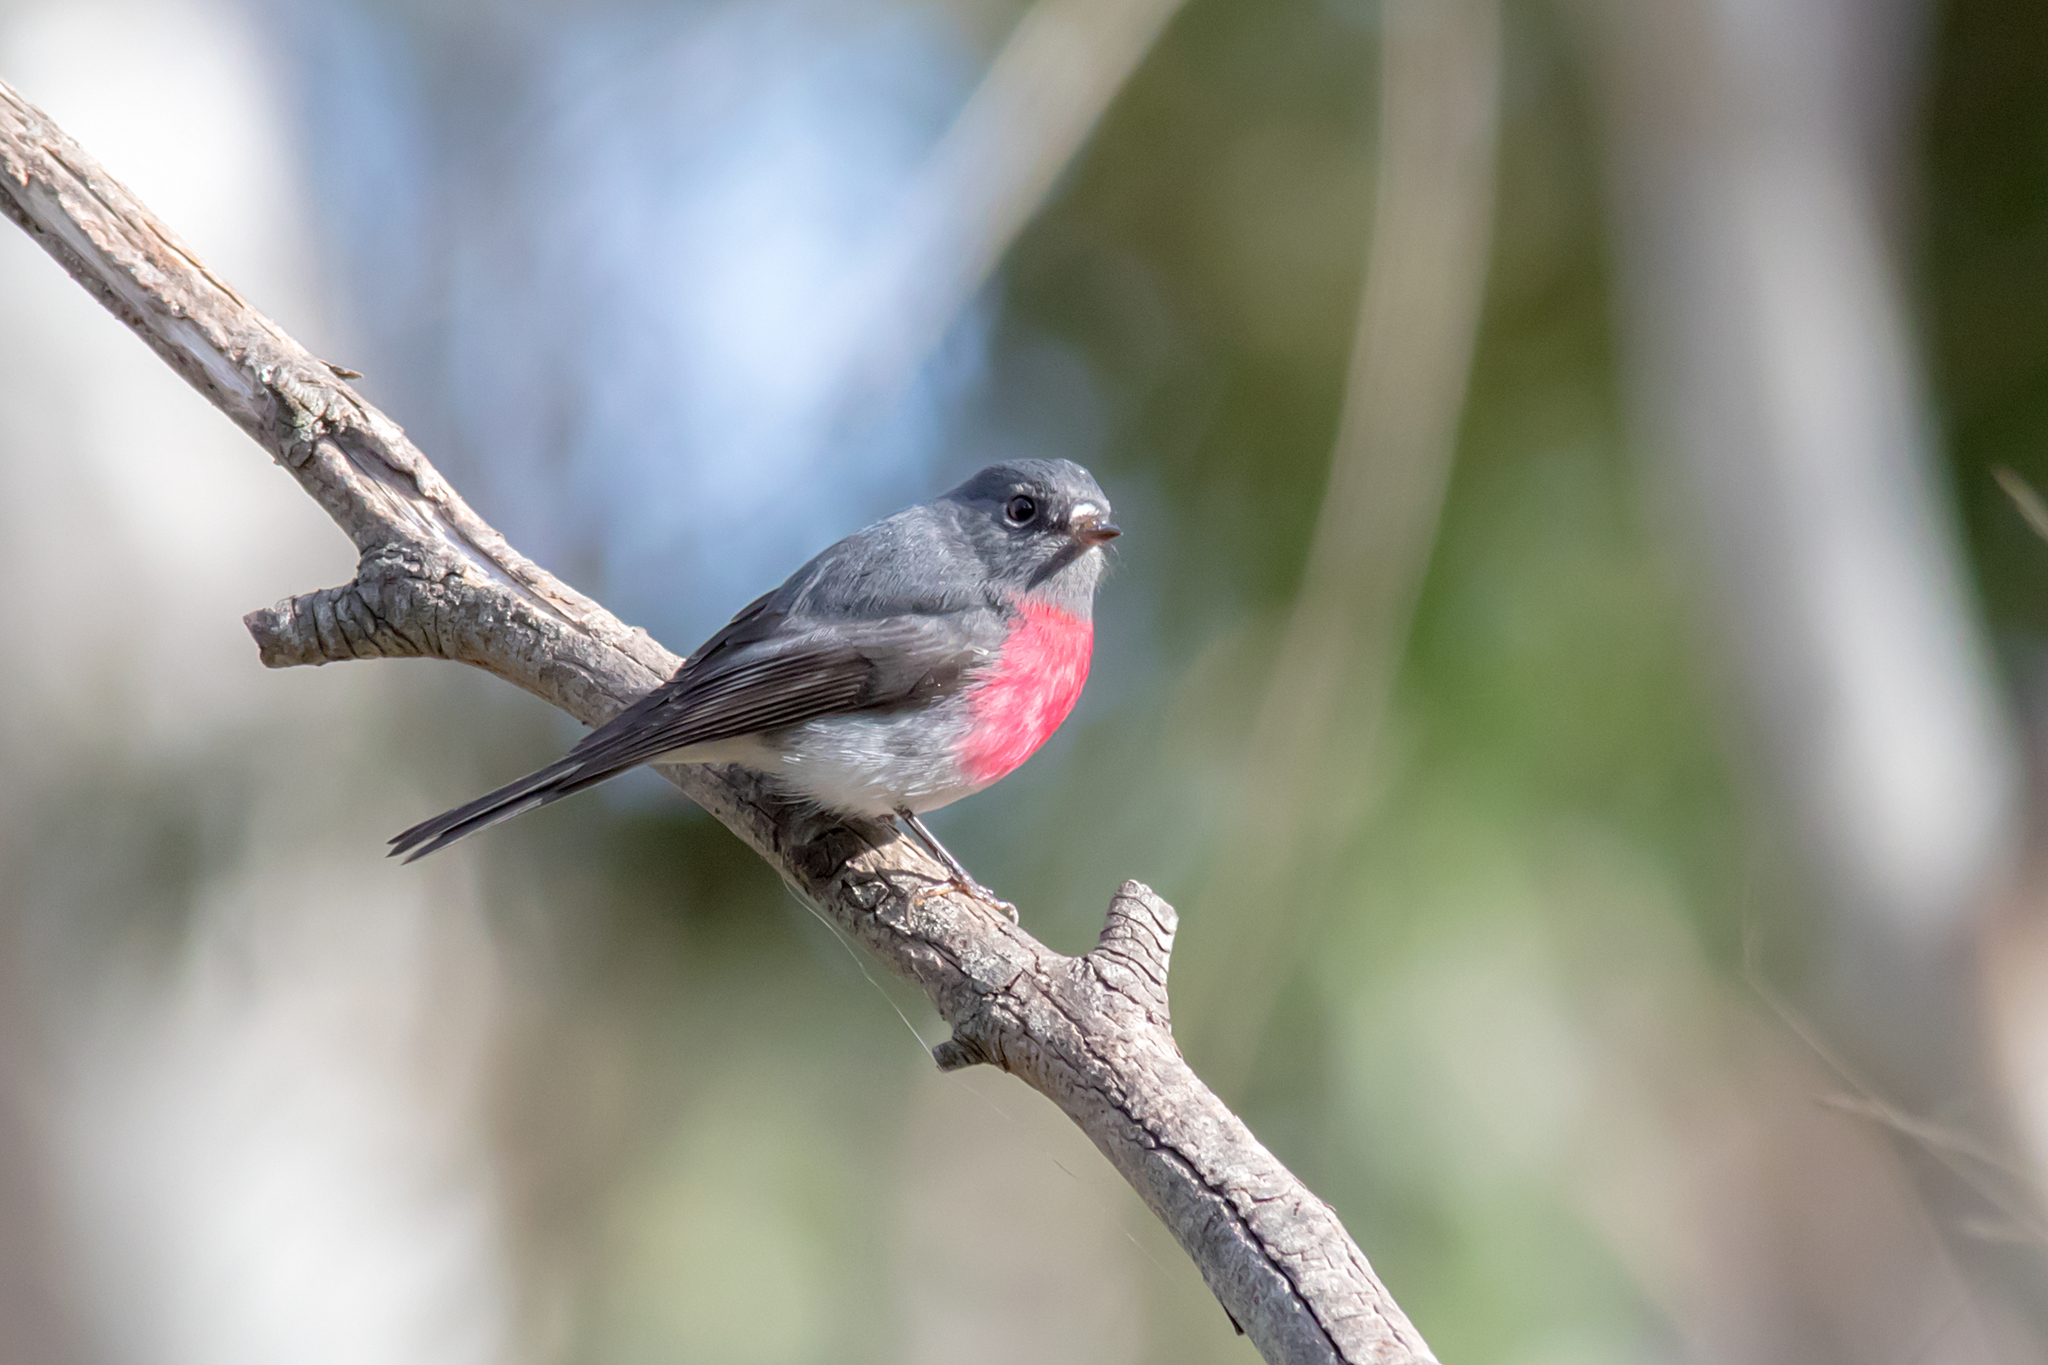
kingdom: Animalia
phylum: Chordata
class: Aves
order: Passeriformes
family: Petroicidae
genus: Petroica
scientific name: Petroica rosea
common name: Rose robin
